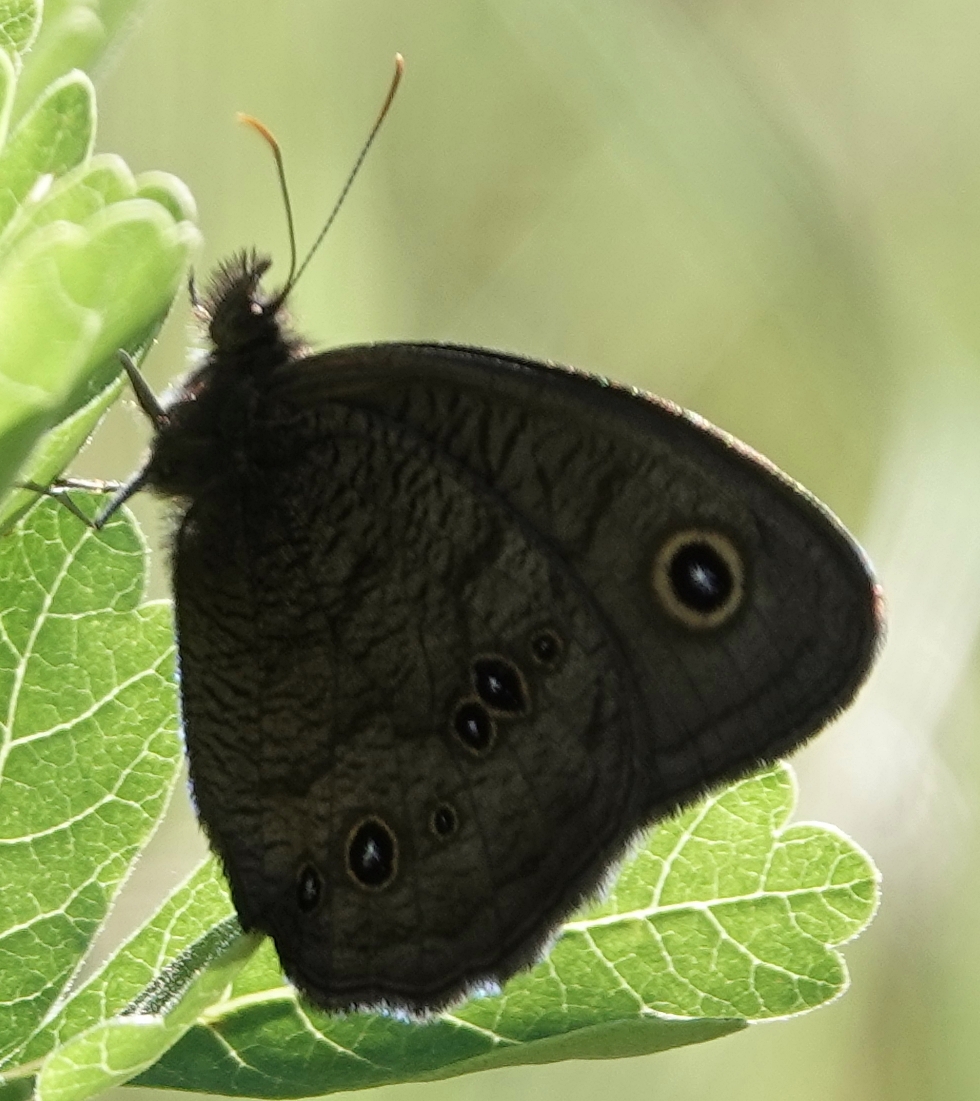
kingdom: Animalia
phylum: Arthropoda
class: Insecta
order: Lepidoptera
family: Nymphalidae
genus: Cercyonis
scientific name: Cercyonis pegala
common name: Common wood-nymph
